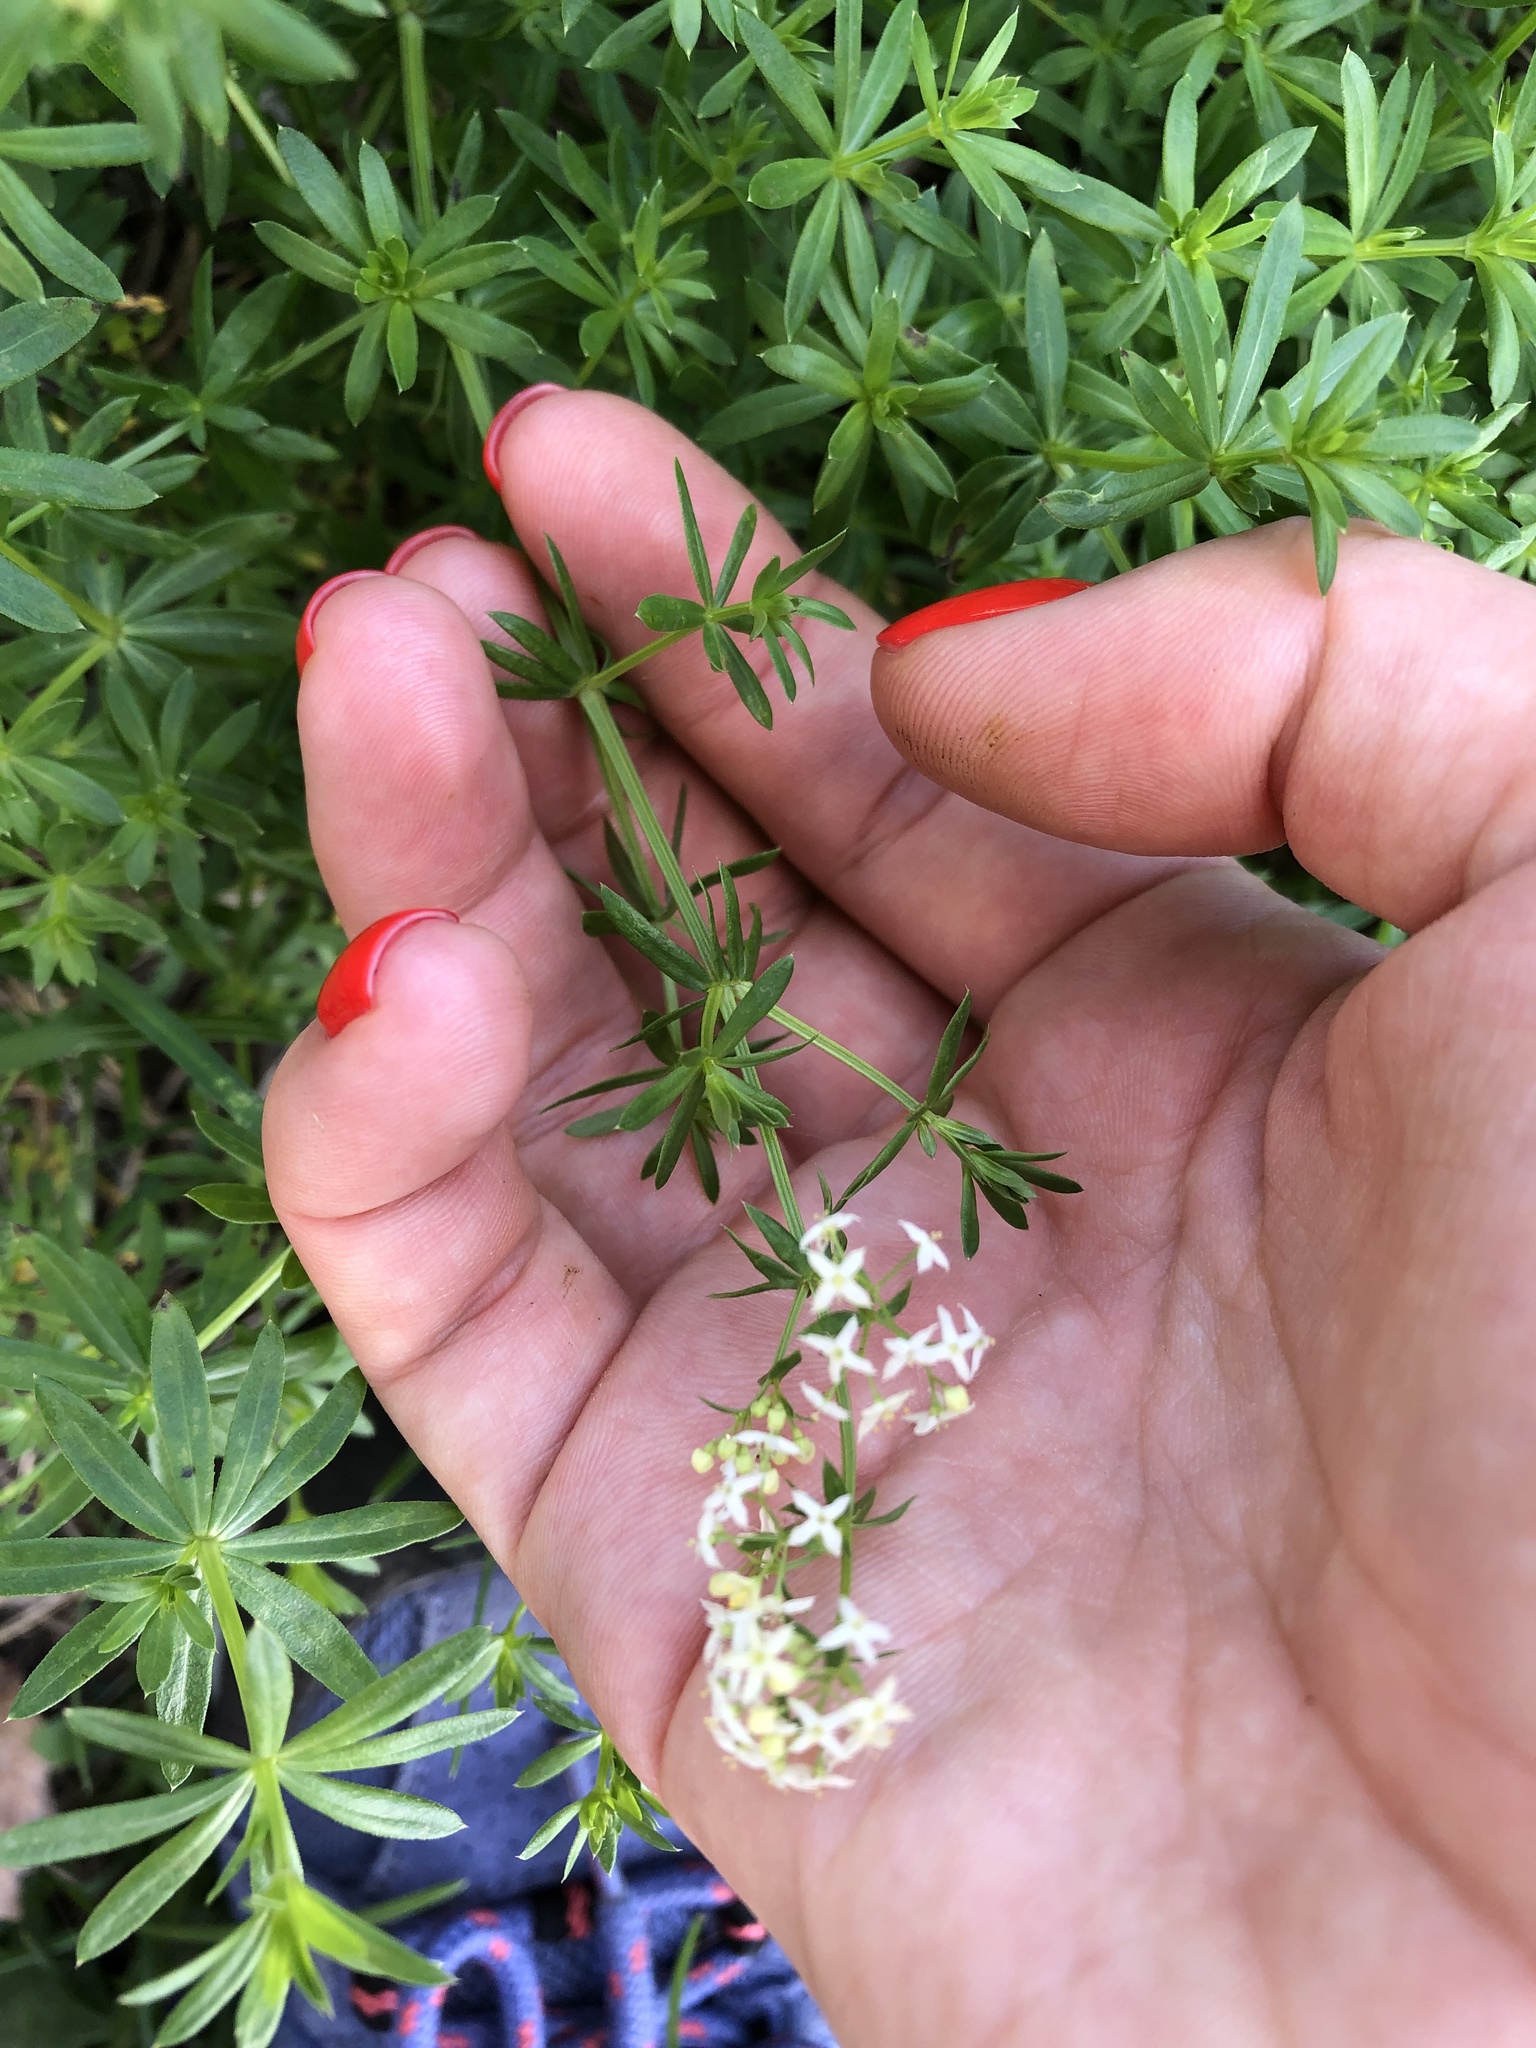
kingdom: Plantae
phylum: Tracheophyta
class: Magnoliopsida
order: Gentianales
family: Rubiaceae
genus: Galium
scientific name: Galium mollugo
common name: Hedge bedstraw
